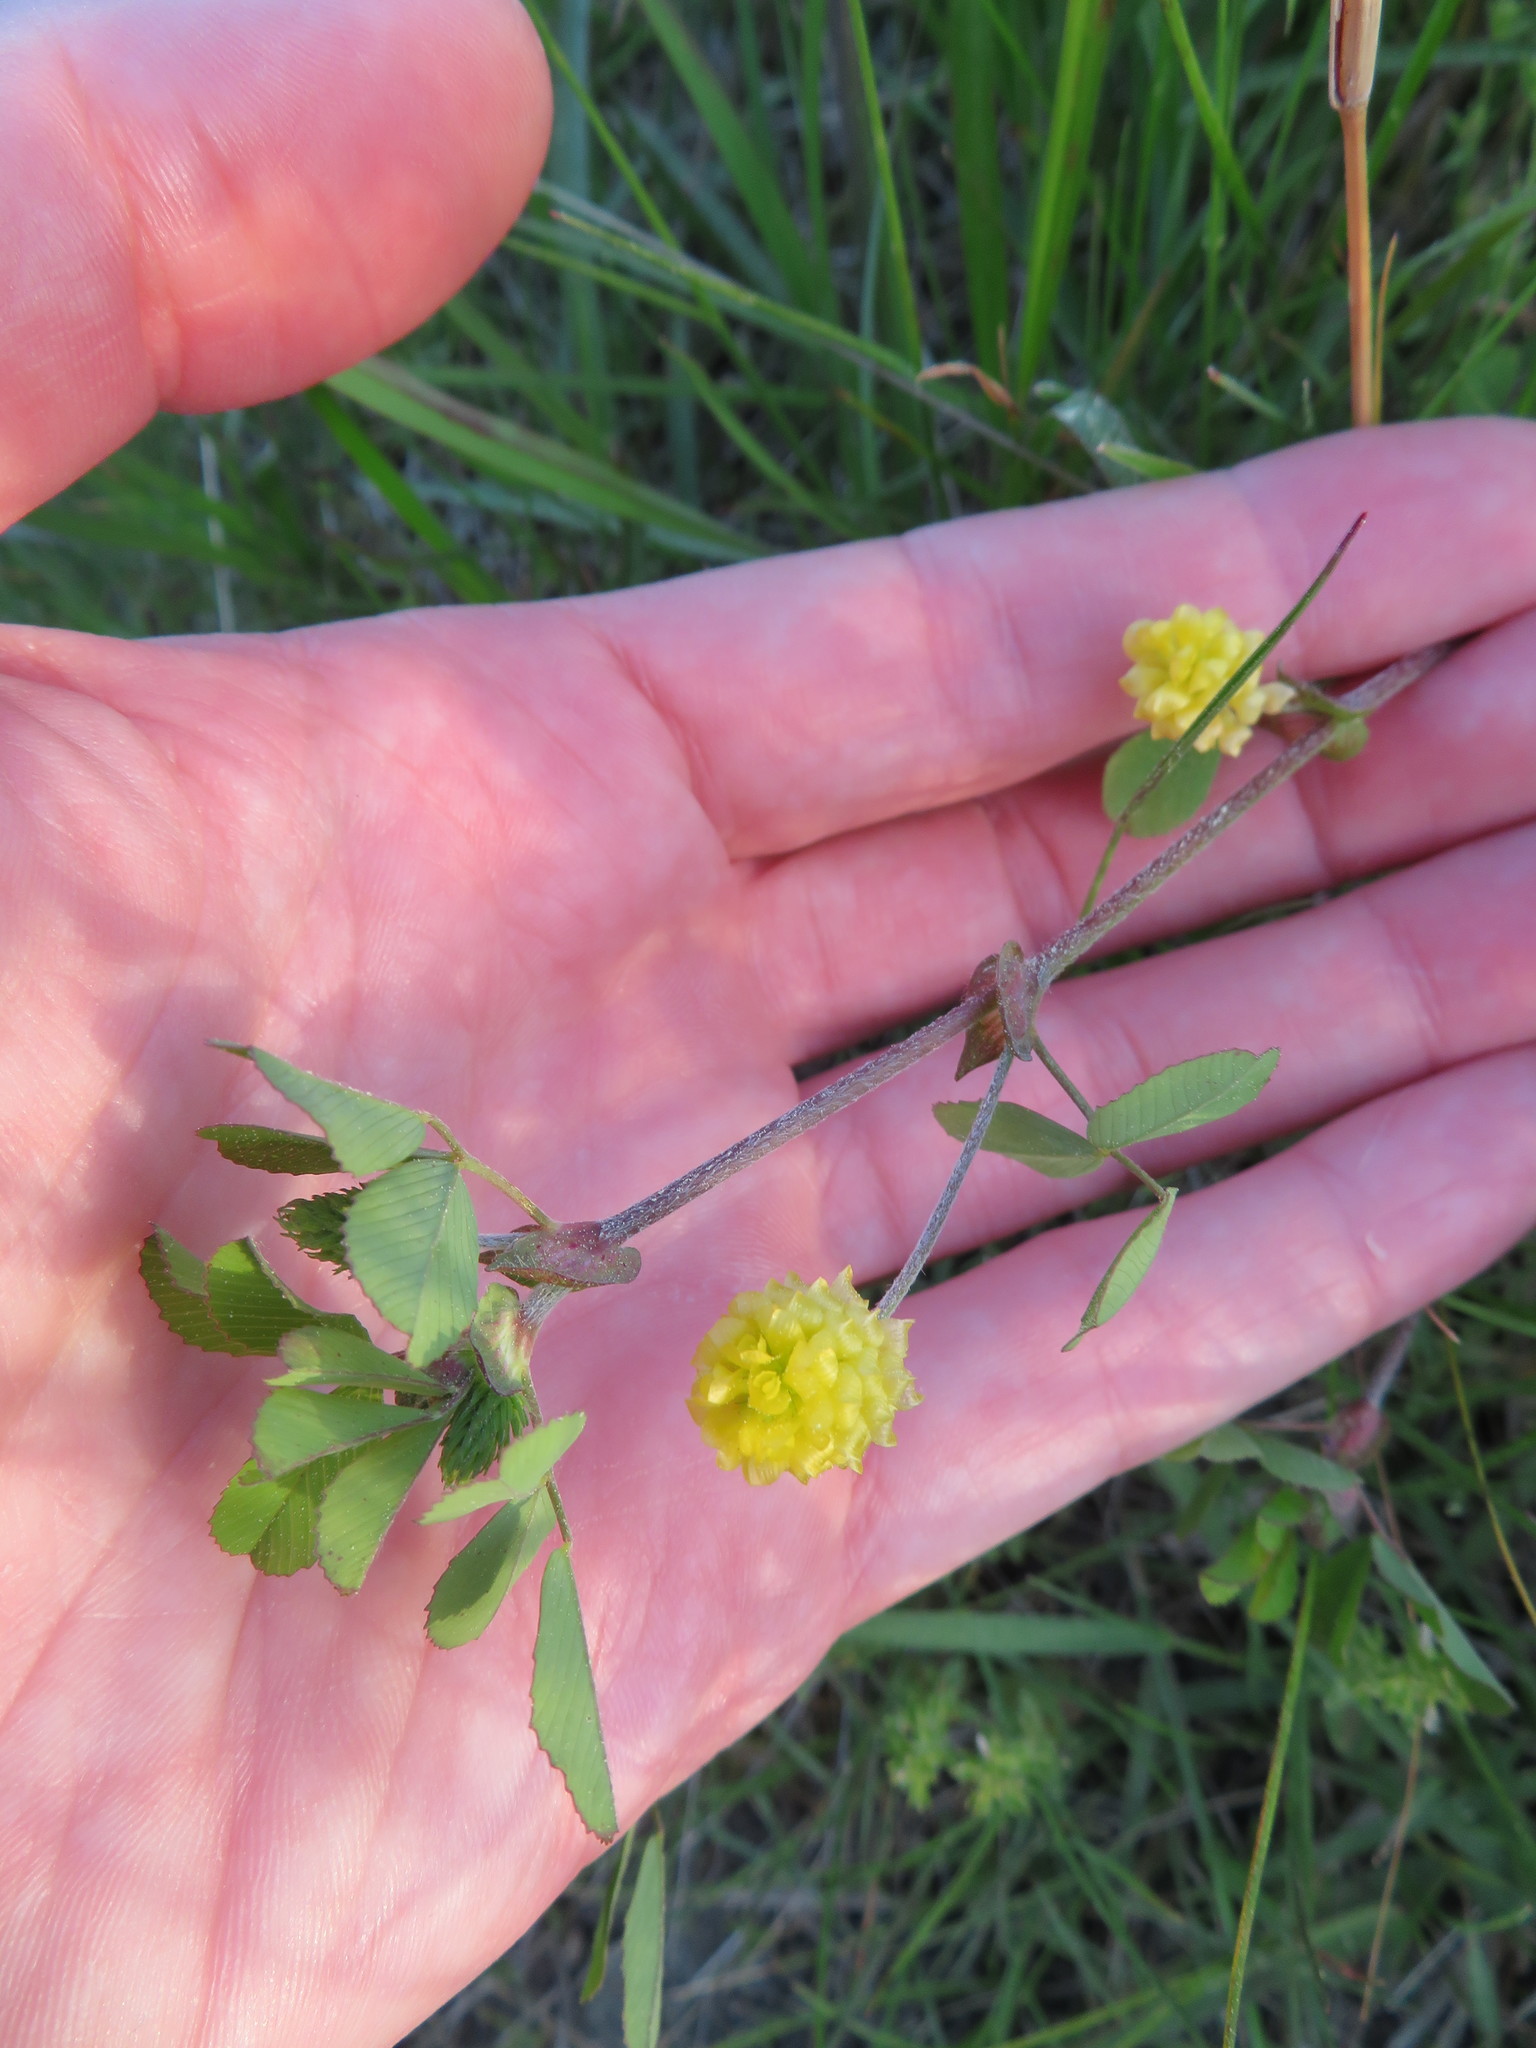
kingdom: Plantae
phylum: Tracheophyta
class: Magnoliopsida
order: Fabales
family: Fabaceae
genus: Trifolium
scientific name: Trifolium campestre
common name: Field clover
